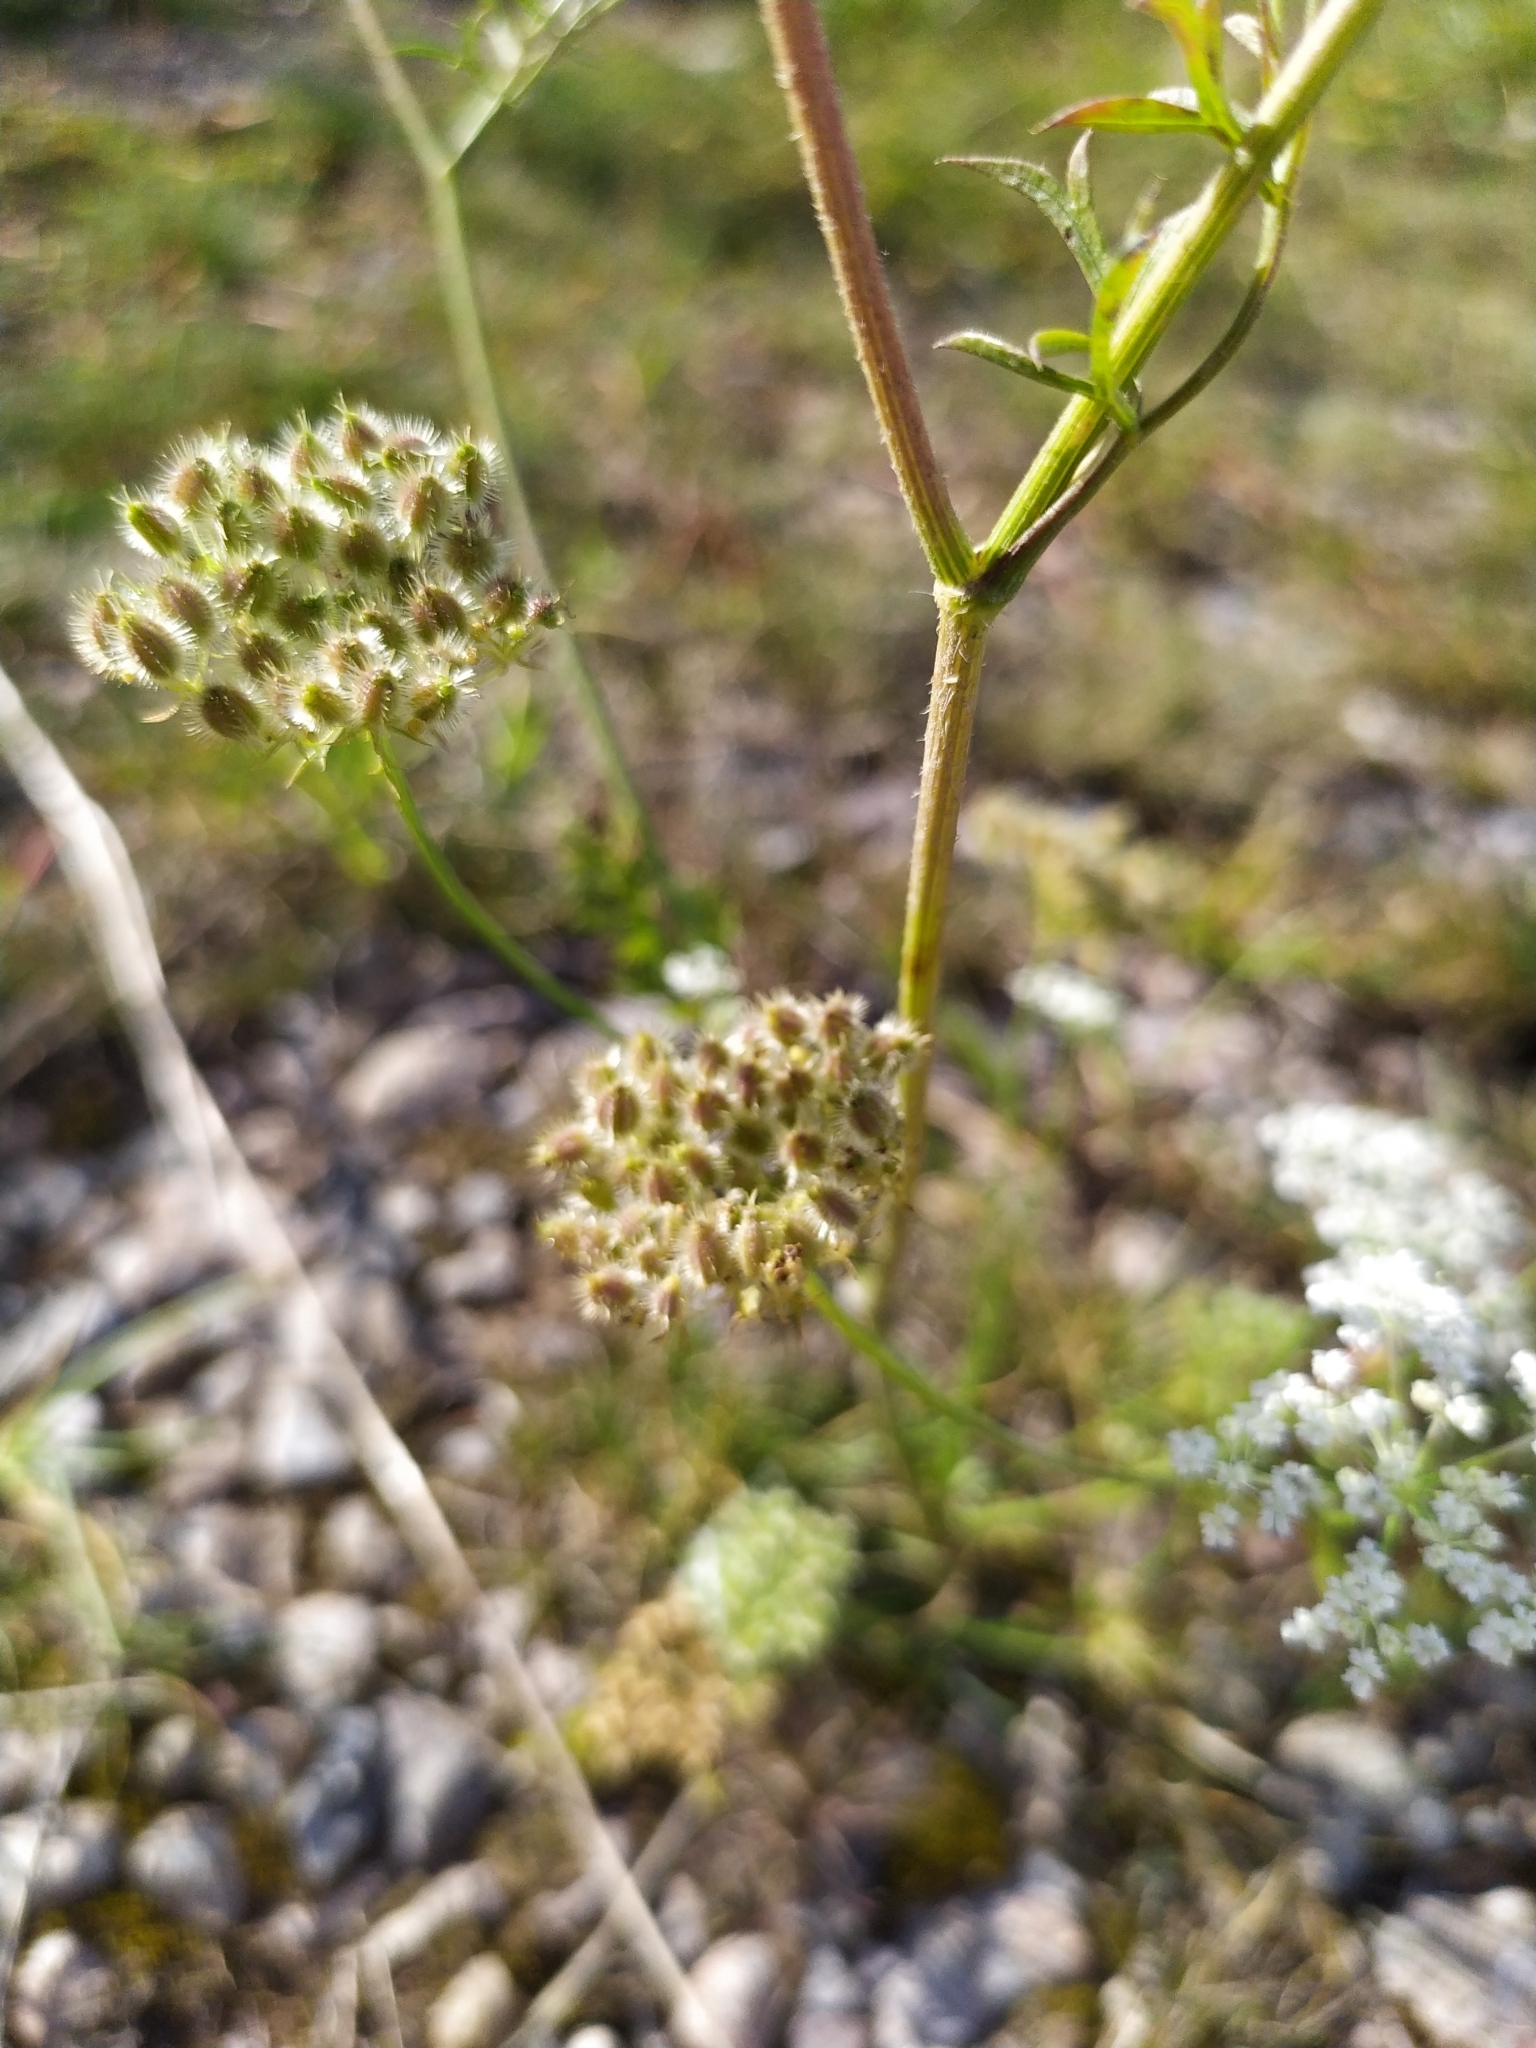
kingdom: Plantae
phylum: Tracheophyta
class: Magnoliopsida
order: Apiales
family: Apiaceae
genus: Daucus
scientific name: Daucus carota
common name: Wild carrot
